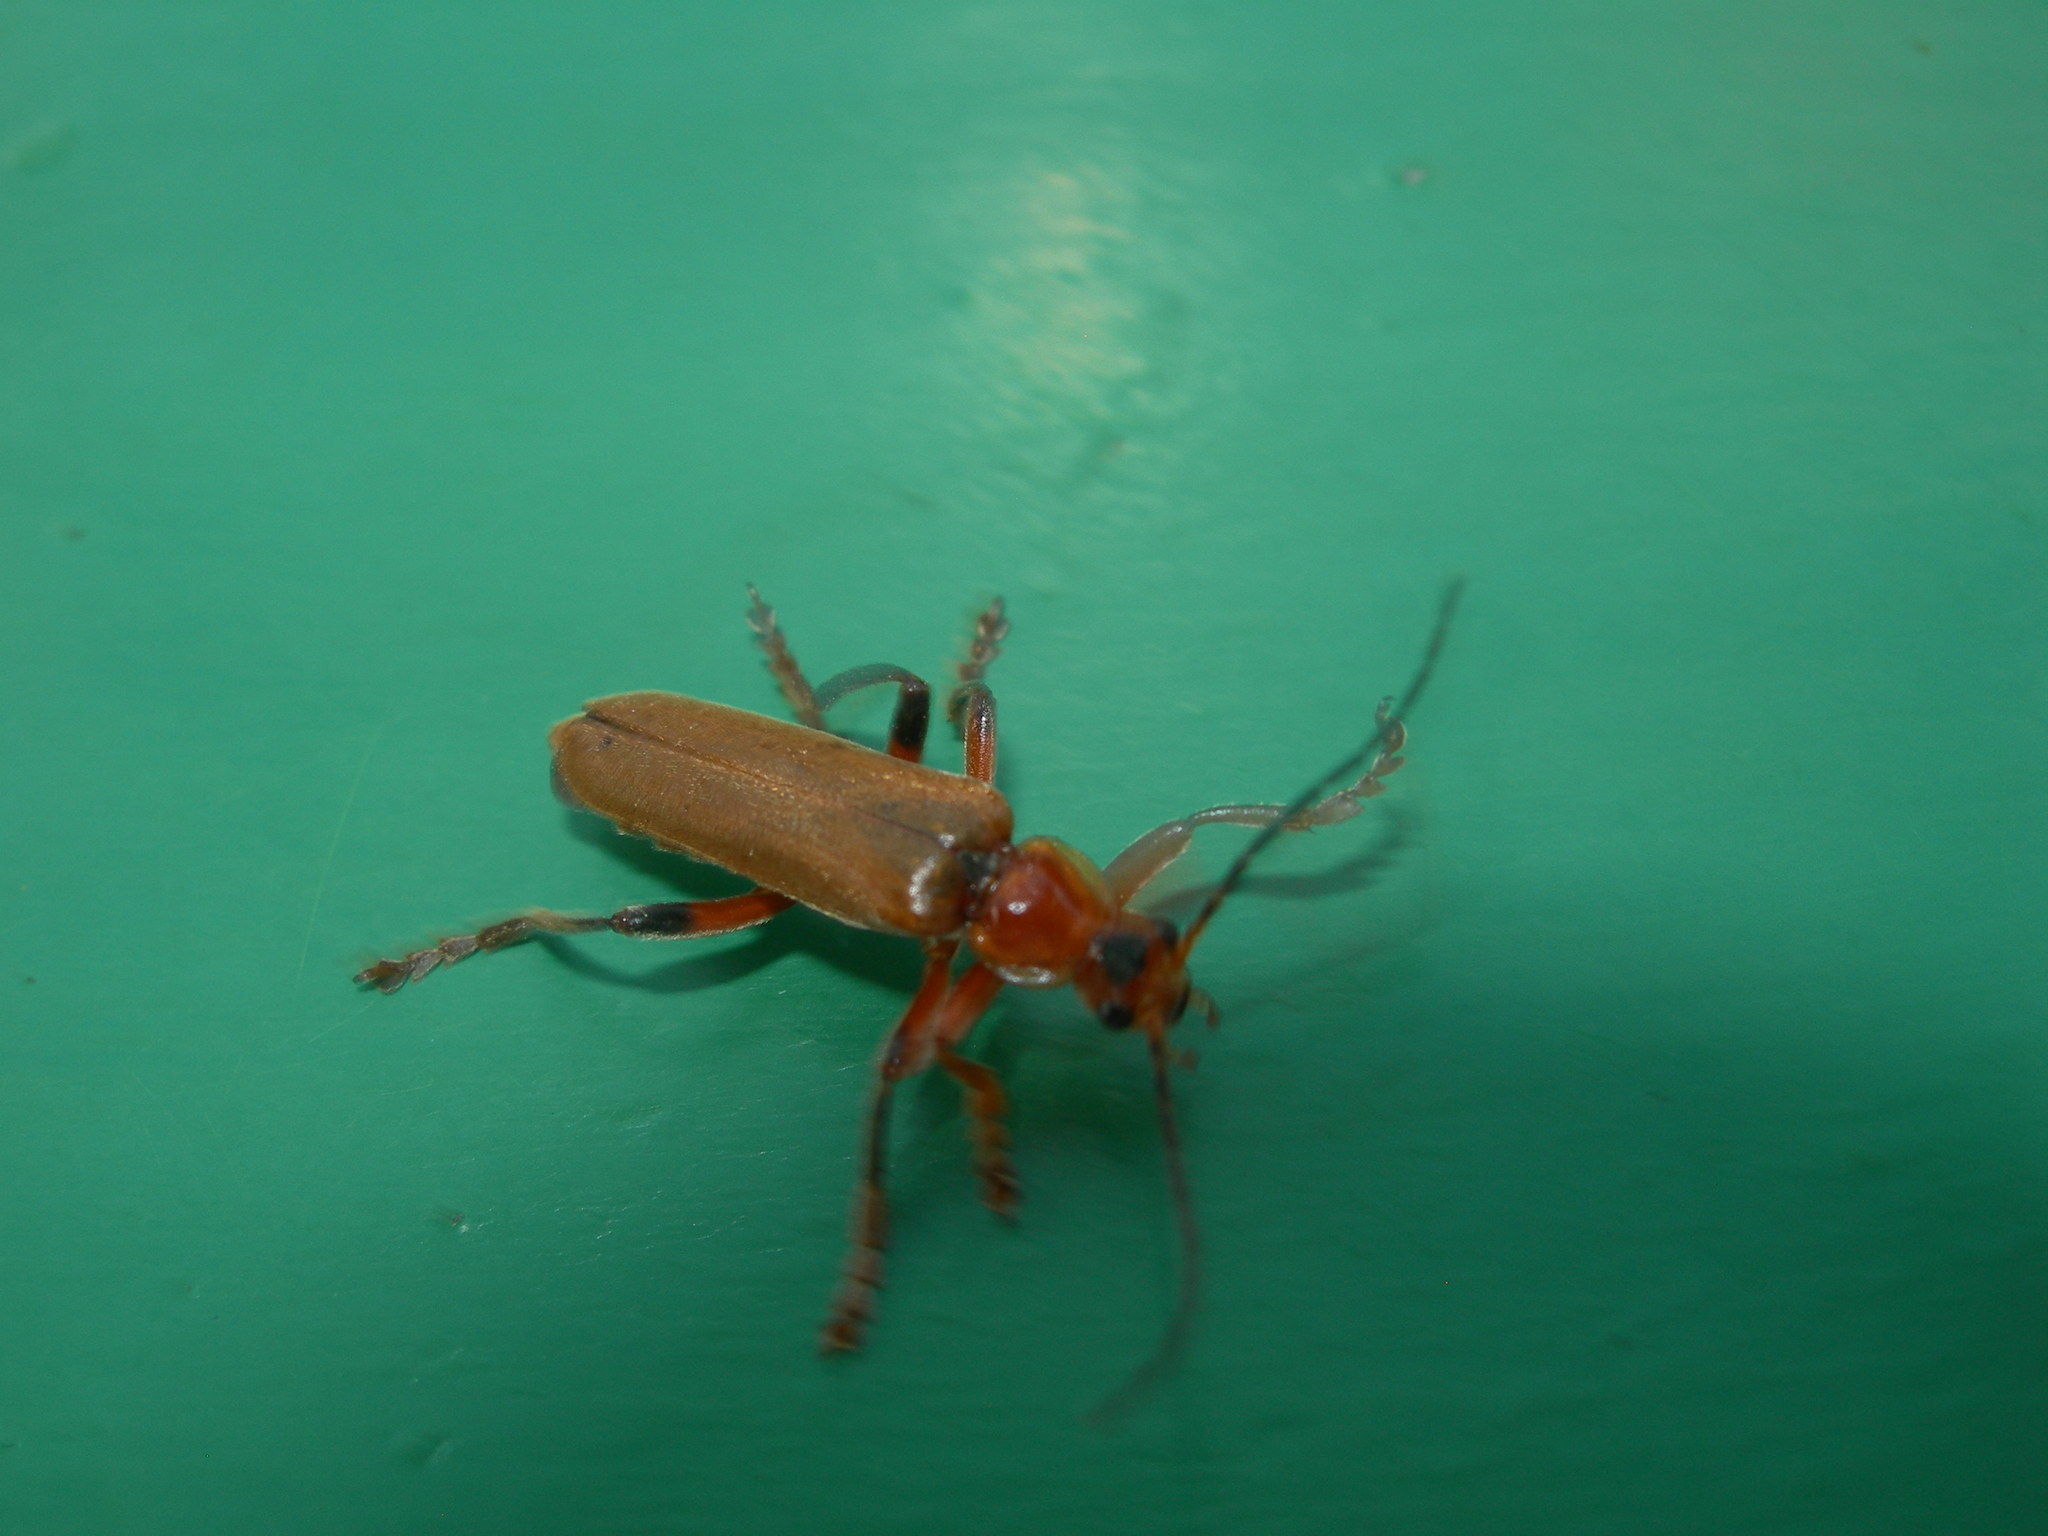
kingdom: Animalia
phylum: Arthropoda
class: Insecta
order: Coleoptera
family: Cantharidae
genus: Cantharis
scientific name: Cantharis livida
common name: Livid soldier beetle
